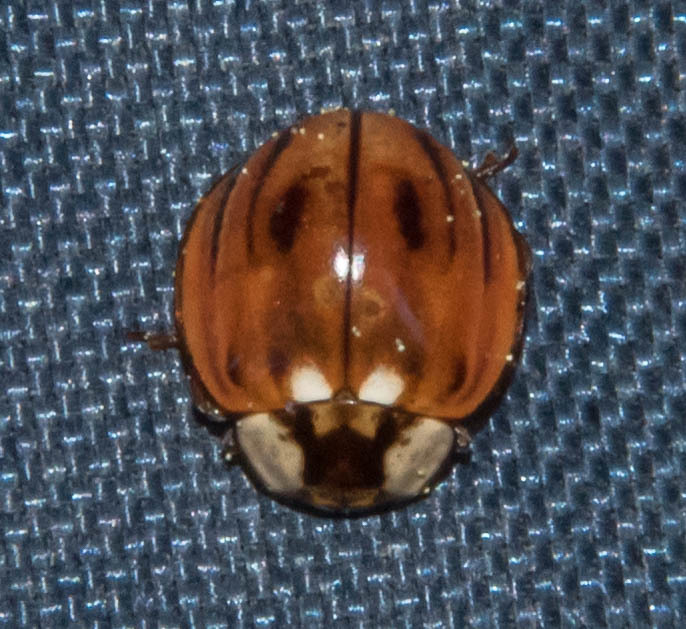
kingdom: Animalia
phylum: Arthropoda
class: Insecta
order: Coleoptera
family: Coccinellidae
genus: Myzia
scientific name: Myzia subvittata
